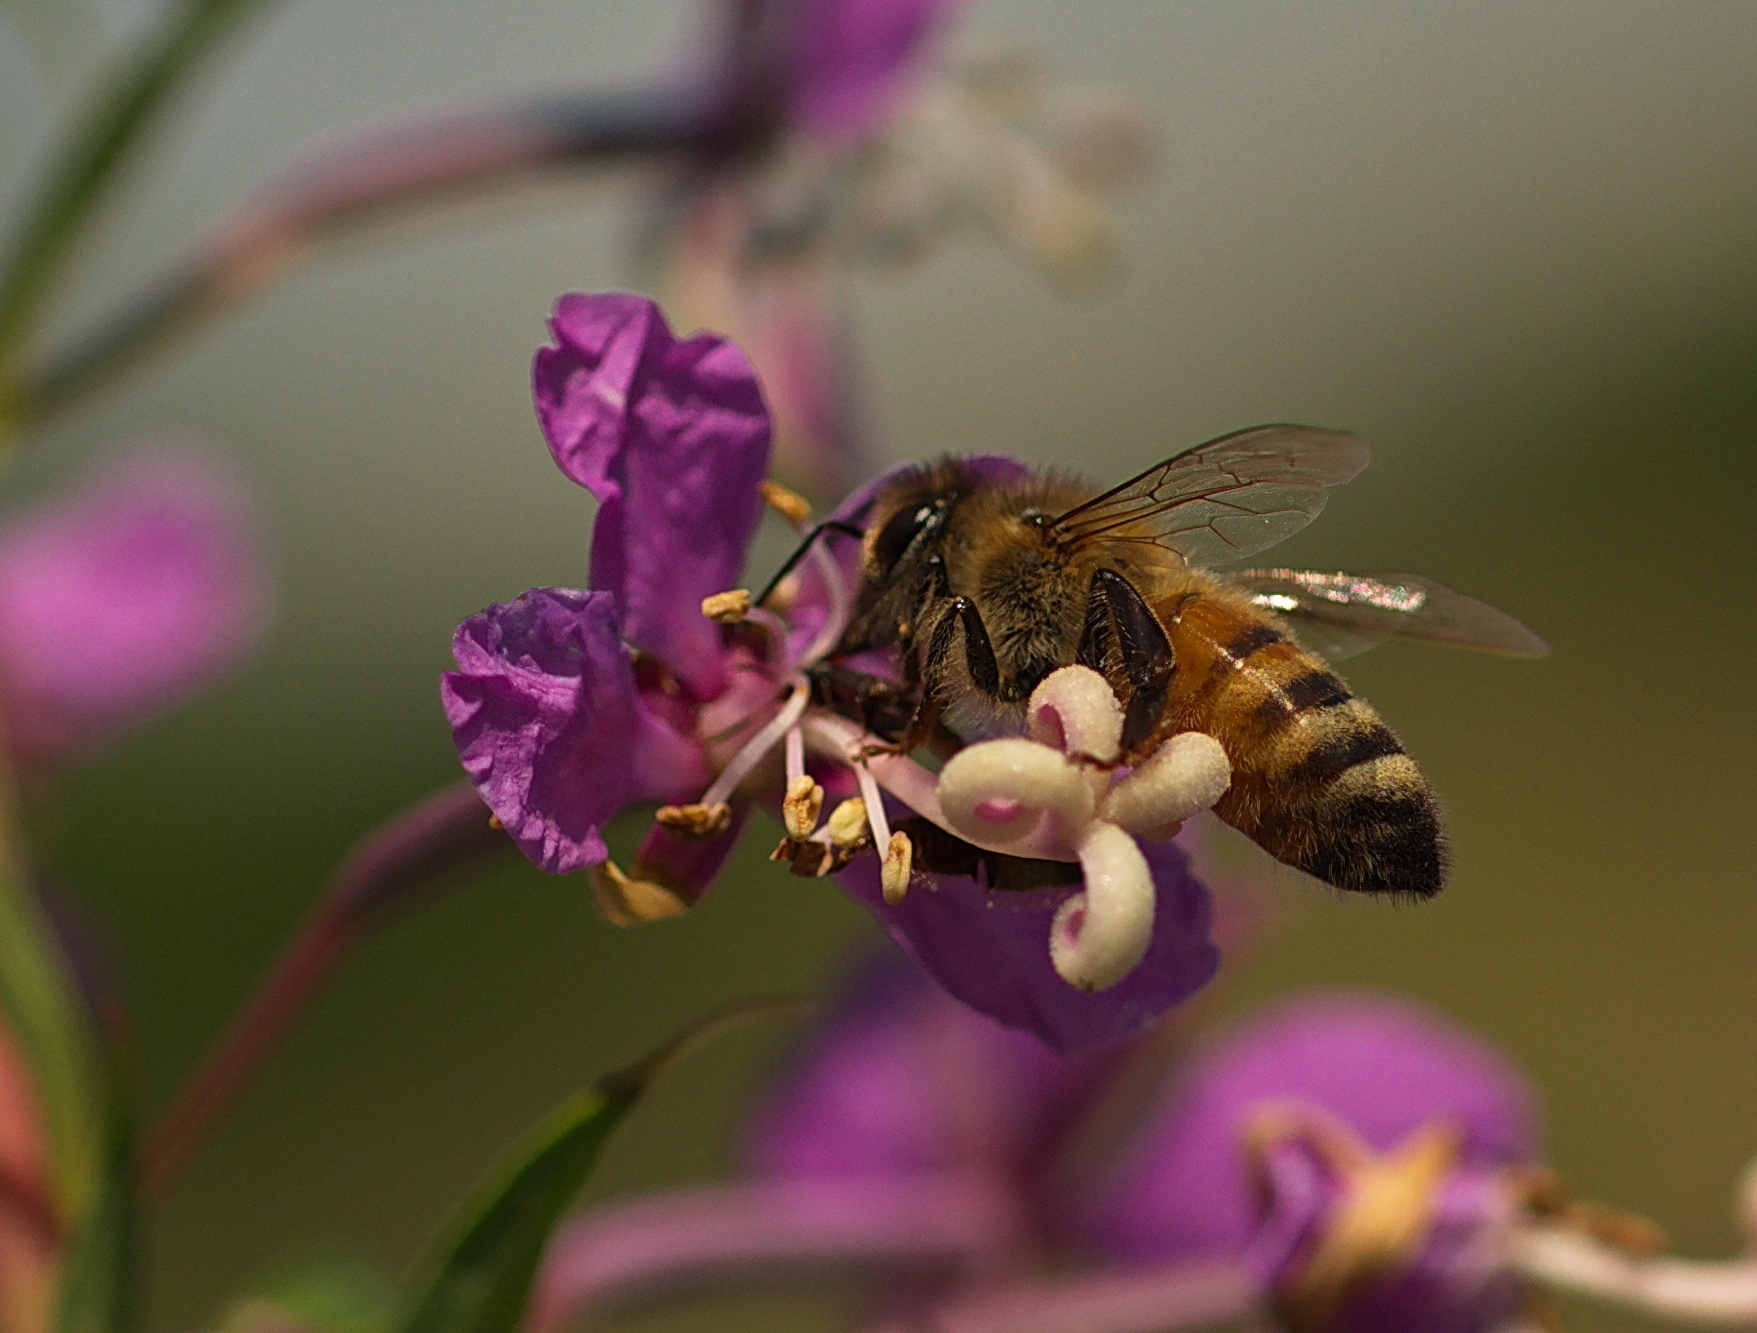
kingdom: Animalia
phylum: Arthropoda
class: Insecta
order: Hymenoptera
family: Apidae
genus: Apis
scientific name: Apis mellifera
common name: Honey bee
